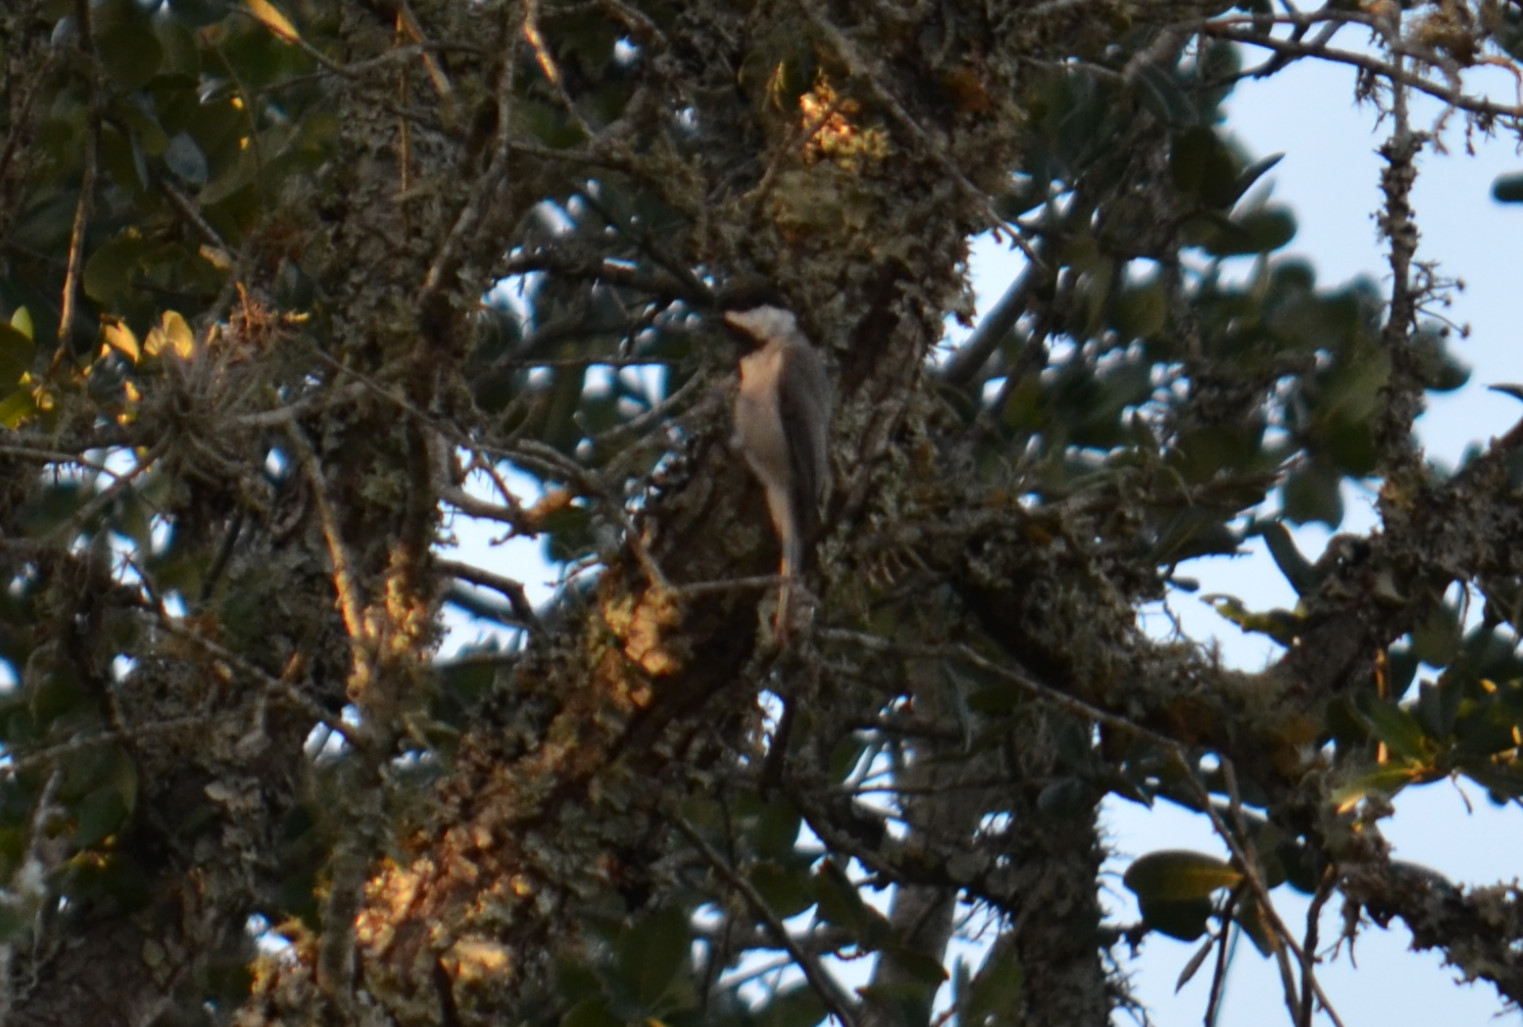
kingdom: Animalia
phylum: Chordata
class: Aves
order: Passeriformes
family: Paridae
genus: Poecile
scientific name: Poecile carolinensis
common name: Carolina chickadee
